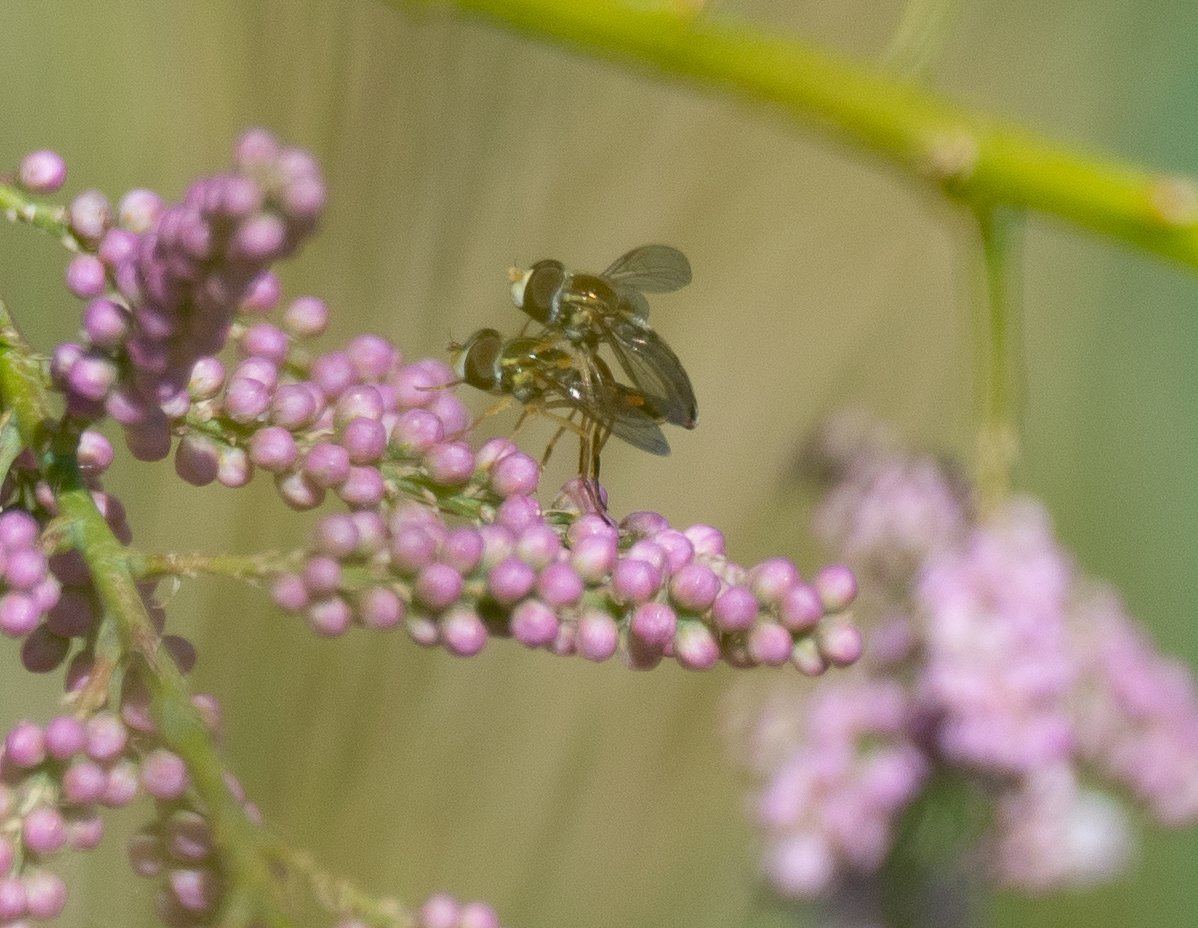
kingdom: Animalia
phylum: Arthropoda
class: Insecta
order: Diptera
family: Syrphidae
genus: Toxomerus
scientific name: Toxomerus marginatus
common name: Syrphid fly
